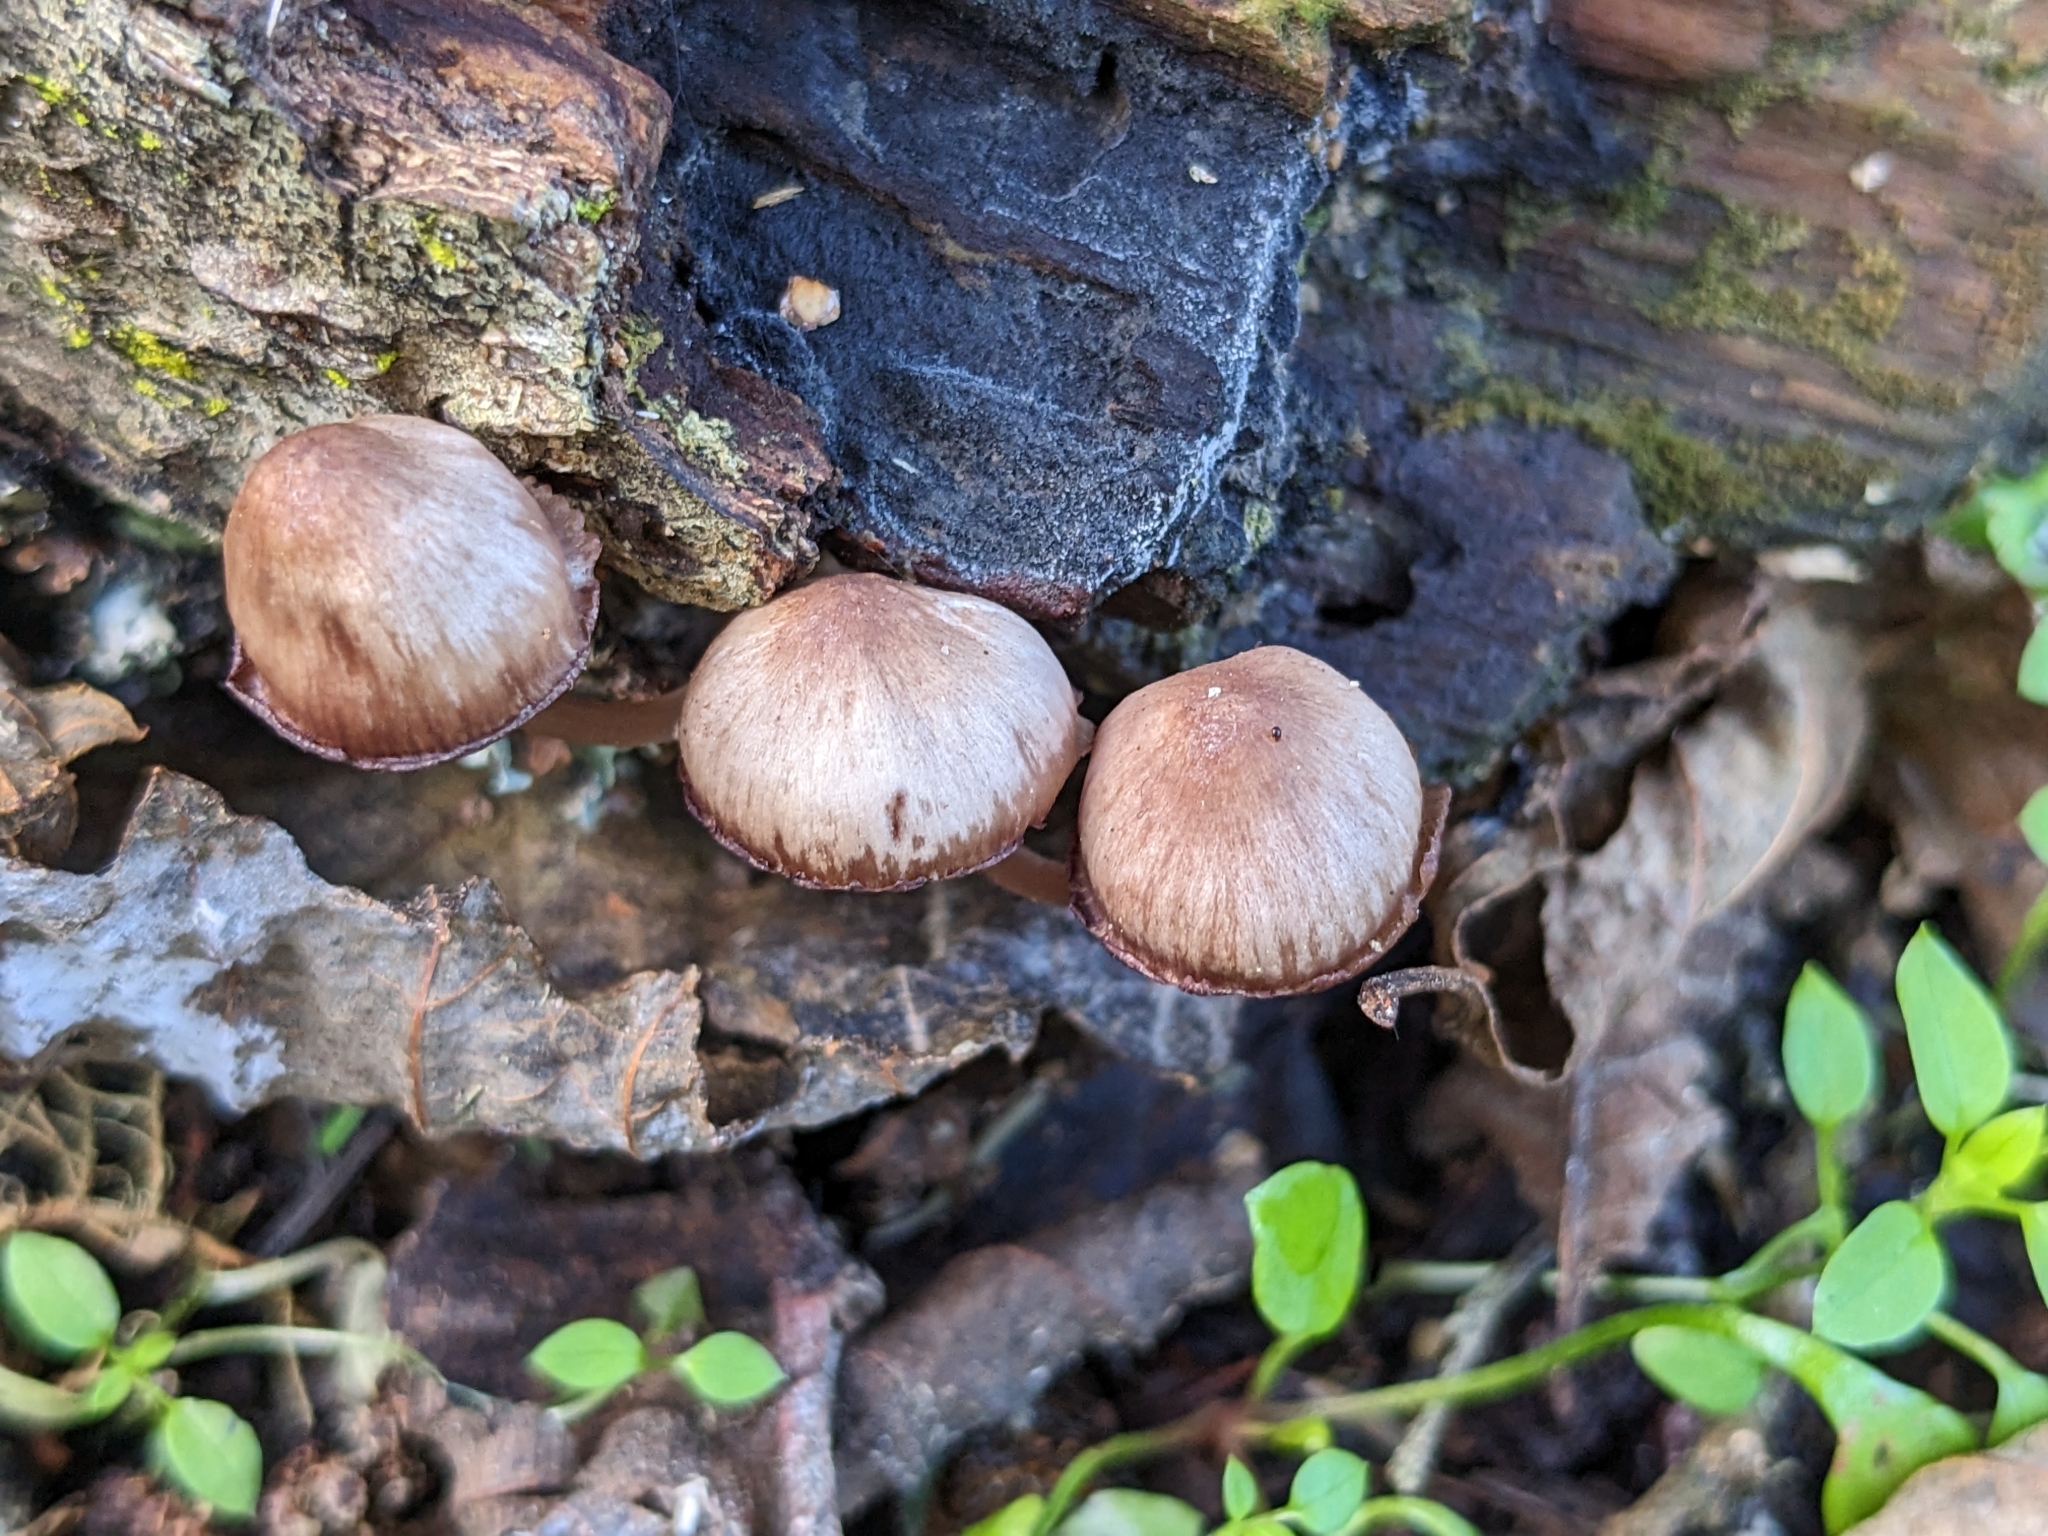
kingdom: Fungi
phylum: Basidiomycota
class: Agaricomycetes
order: Agaricales
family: Mycenaceae
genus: Mycena
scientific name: Mycena haematopus
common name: Burgundydrop bonnet
